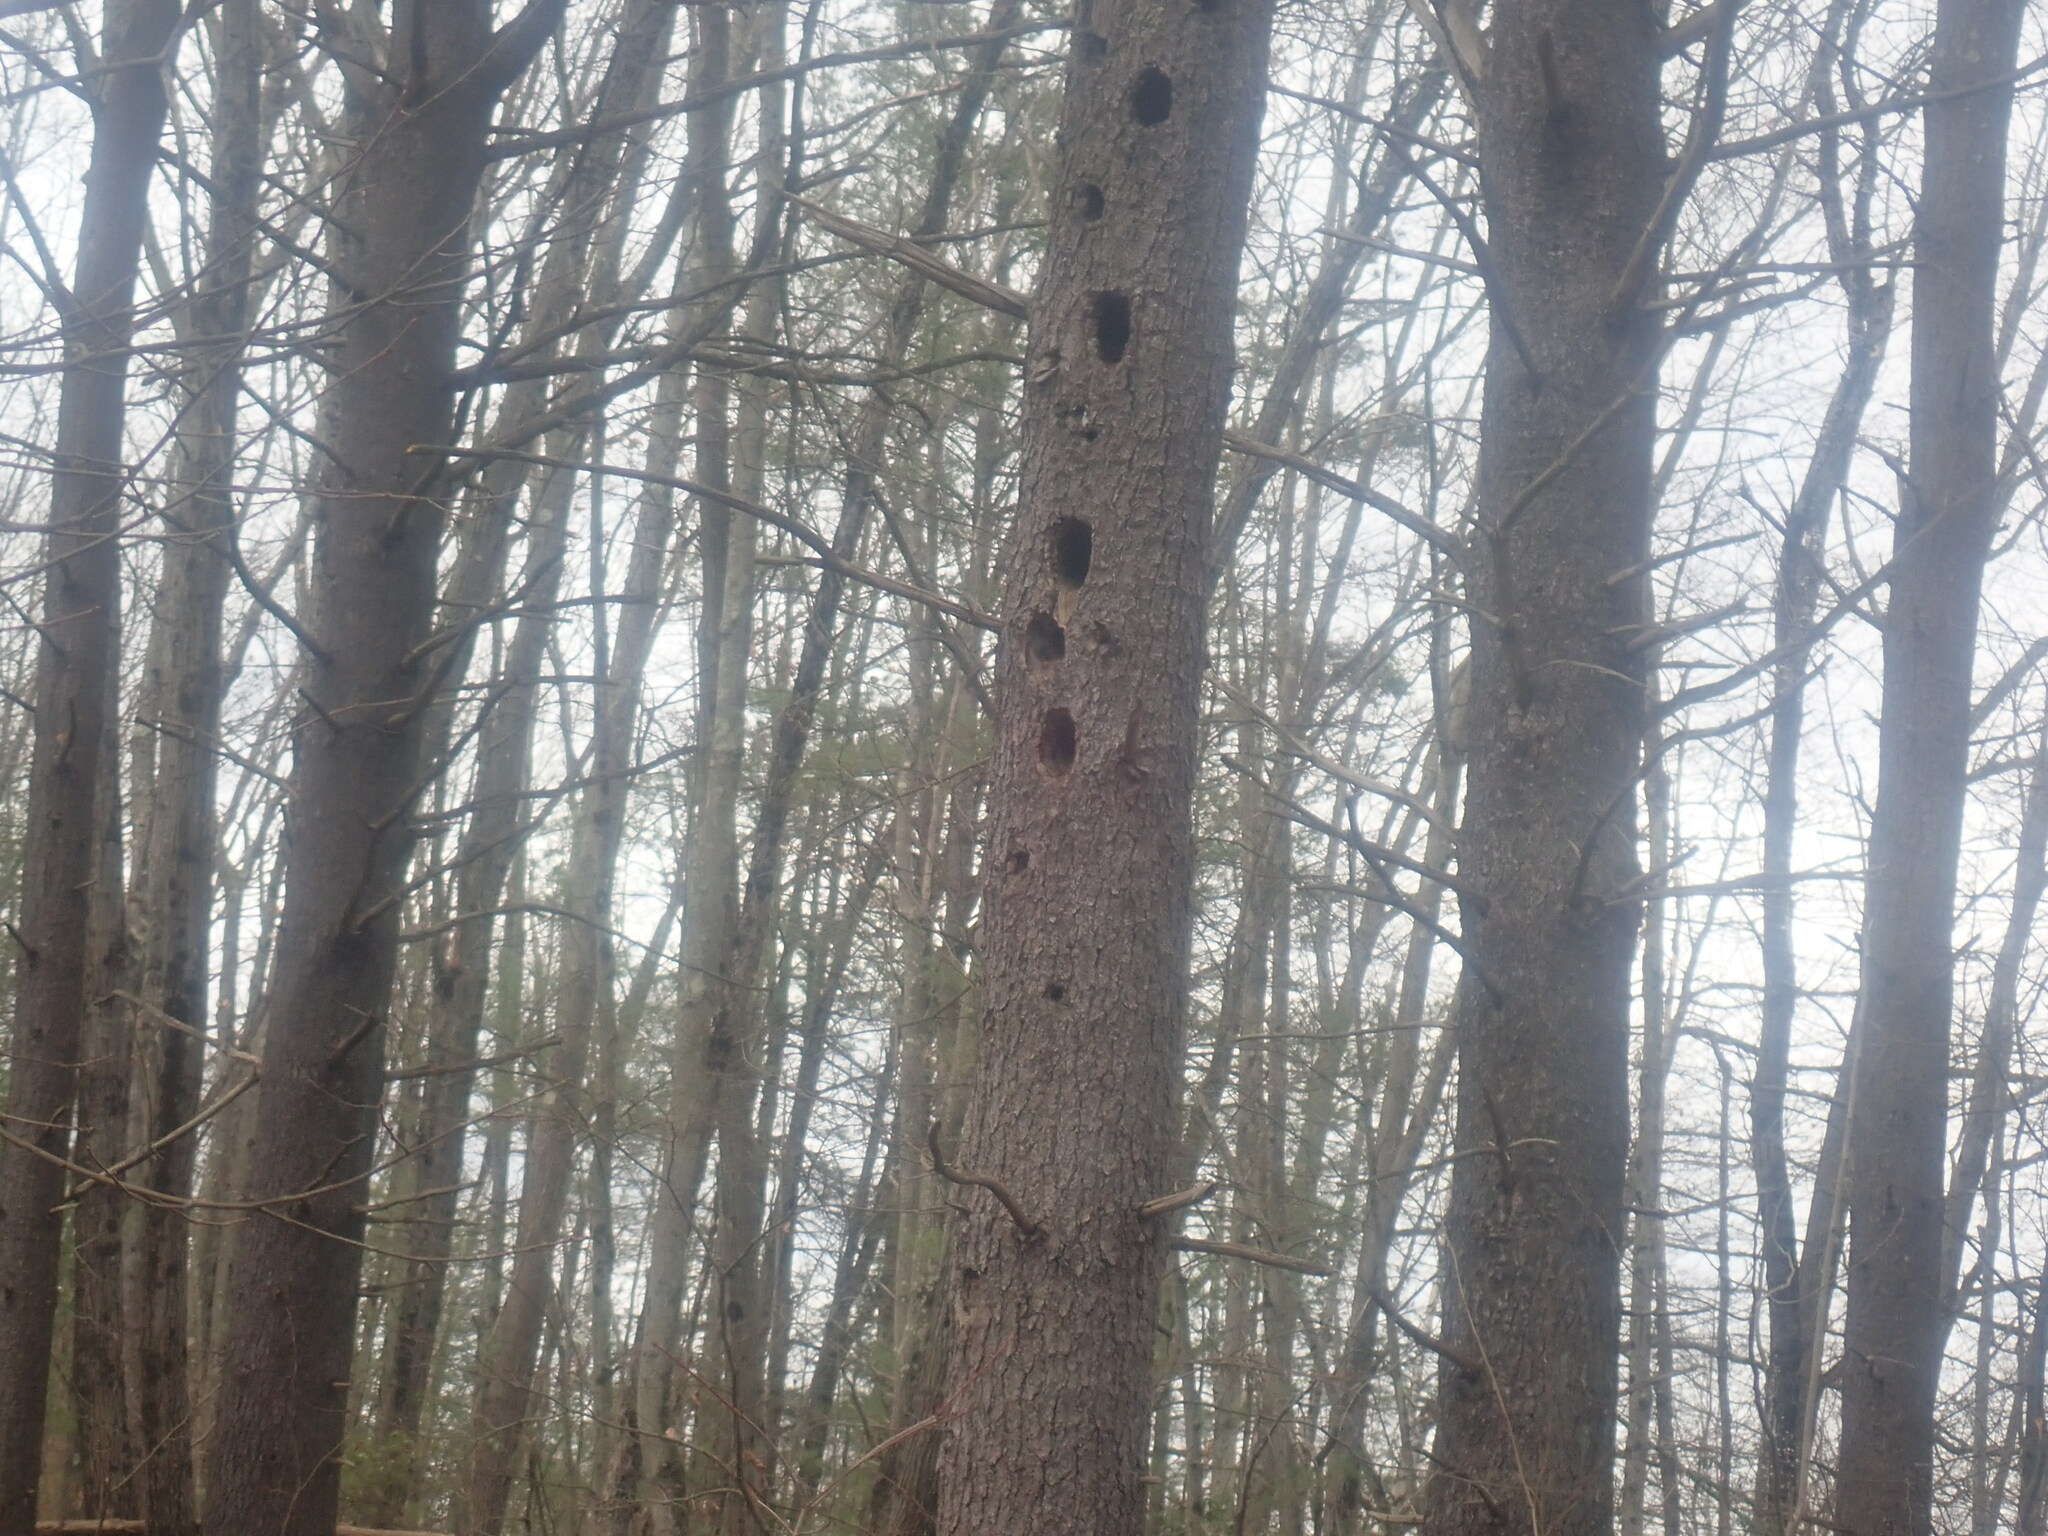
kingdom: Animalia
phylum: Chordata
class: Aves
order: Piciformes
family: Picidae
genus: Dryocopus
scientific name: Dryocopus pileatus
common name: Pileated woodpecker
